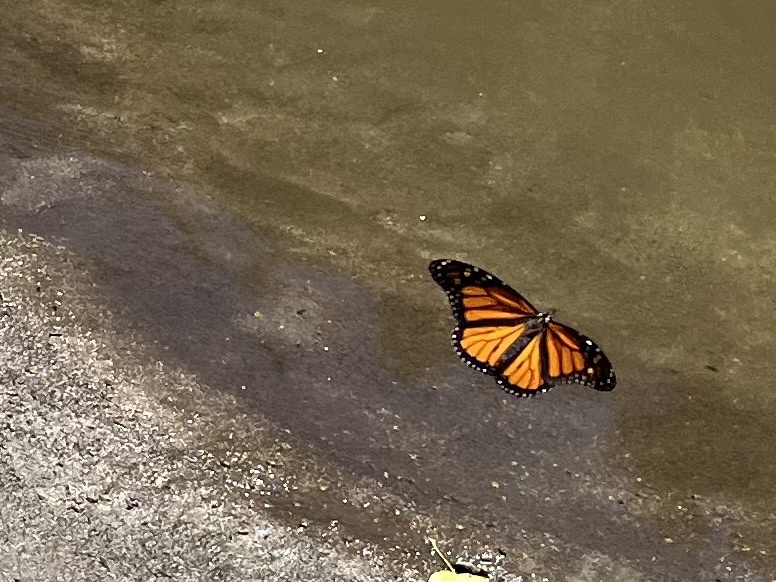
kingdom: Animalia
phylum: Arthropoda
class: Insecta
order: Lepidoptera
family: Nymphalidae
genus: Danaus
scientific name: Danaus plexippus
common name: Monarch
